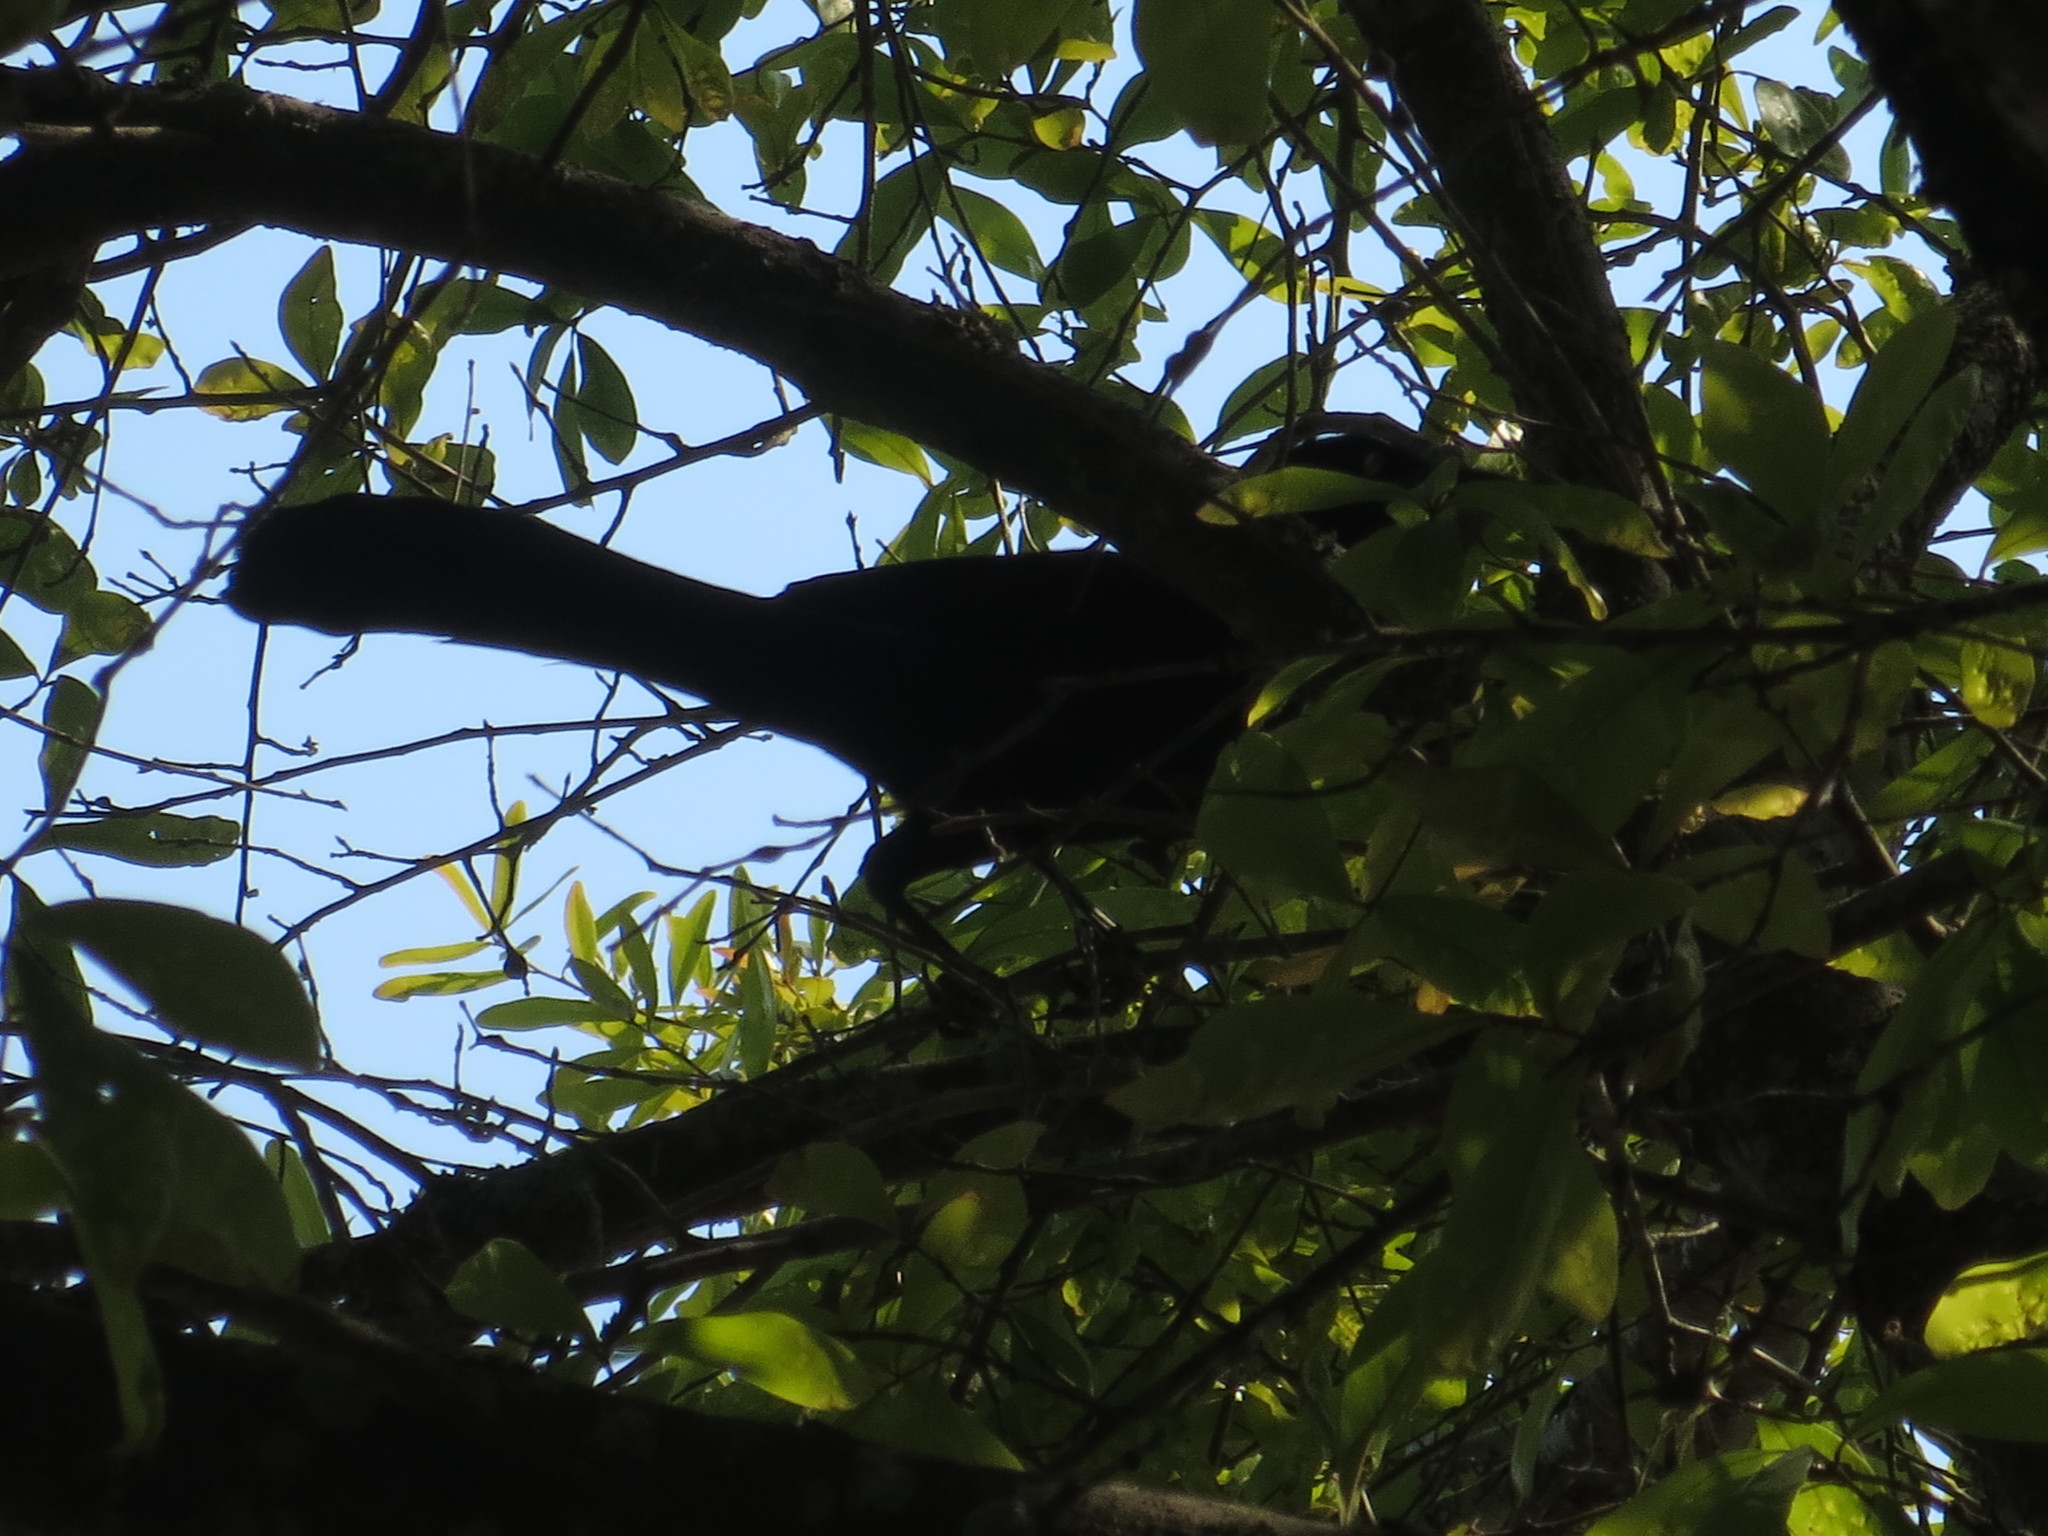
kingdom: Animalia
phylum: Chordata
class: Aves
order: Passeriformes
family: Icteridae
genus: Quiscalus
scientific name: Quiscalus major
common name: Boat-tailed grackle
